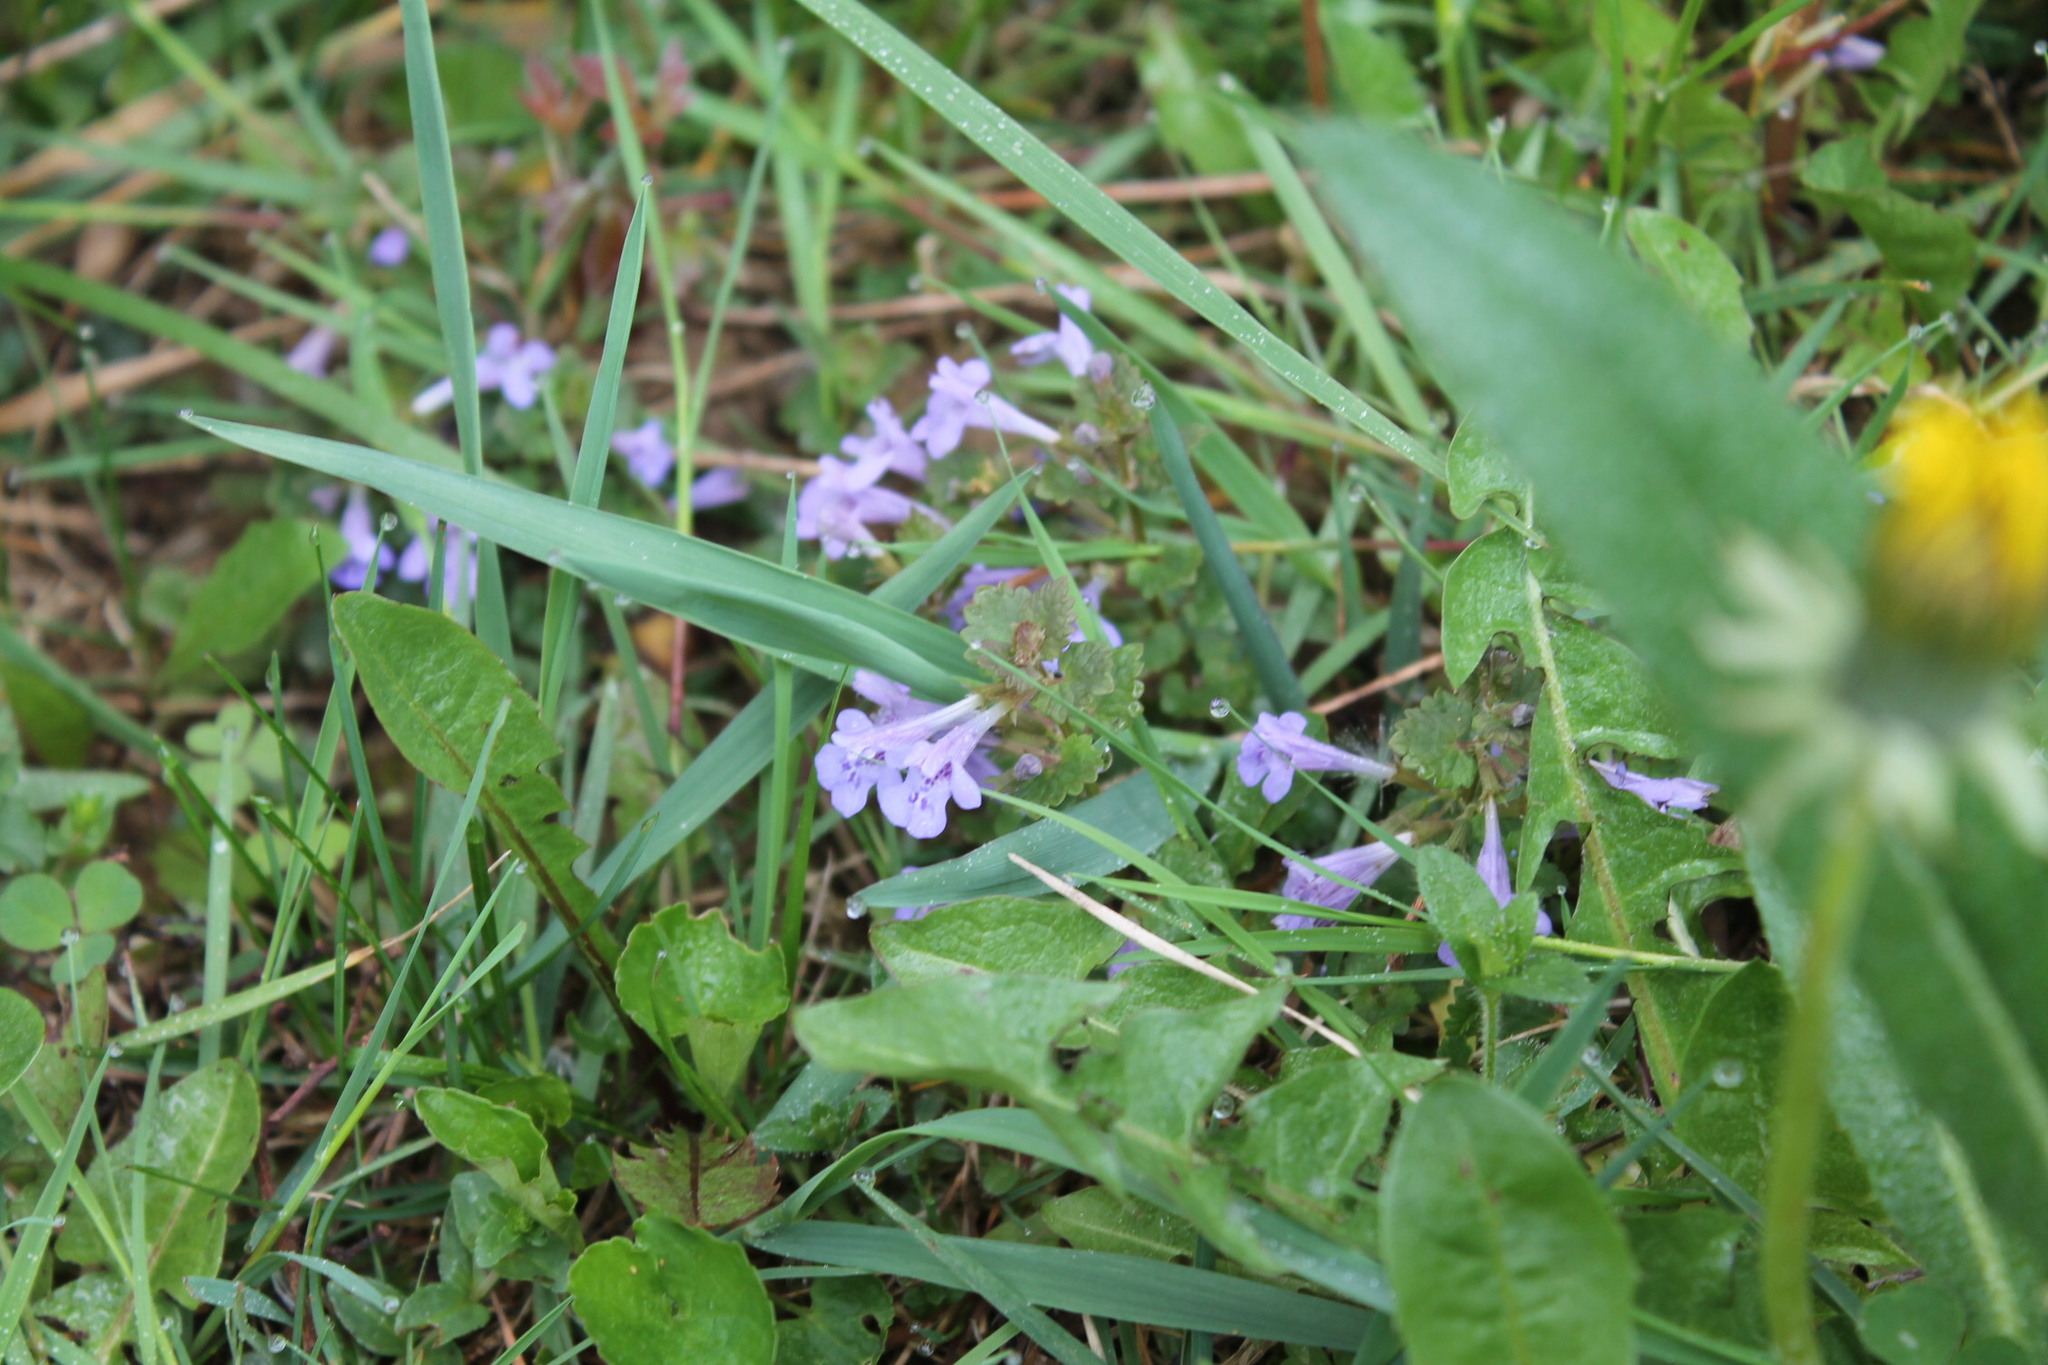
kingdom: Plantae
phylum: Tracheophyta
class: Magnoliopsida
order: Lamiales
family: Lamiaceae
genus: Glechoma
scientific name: Glechoma hederacea
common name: Ground ivy
